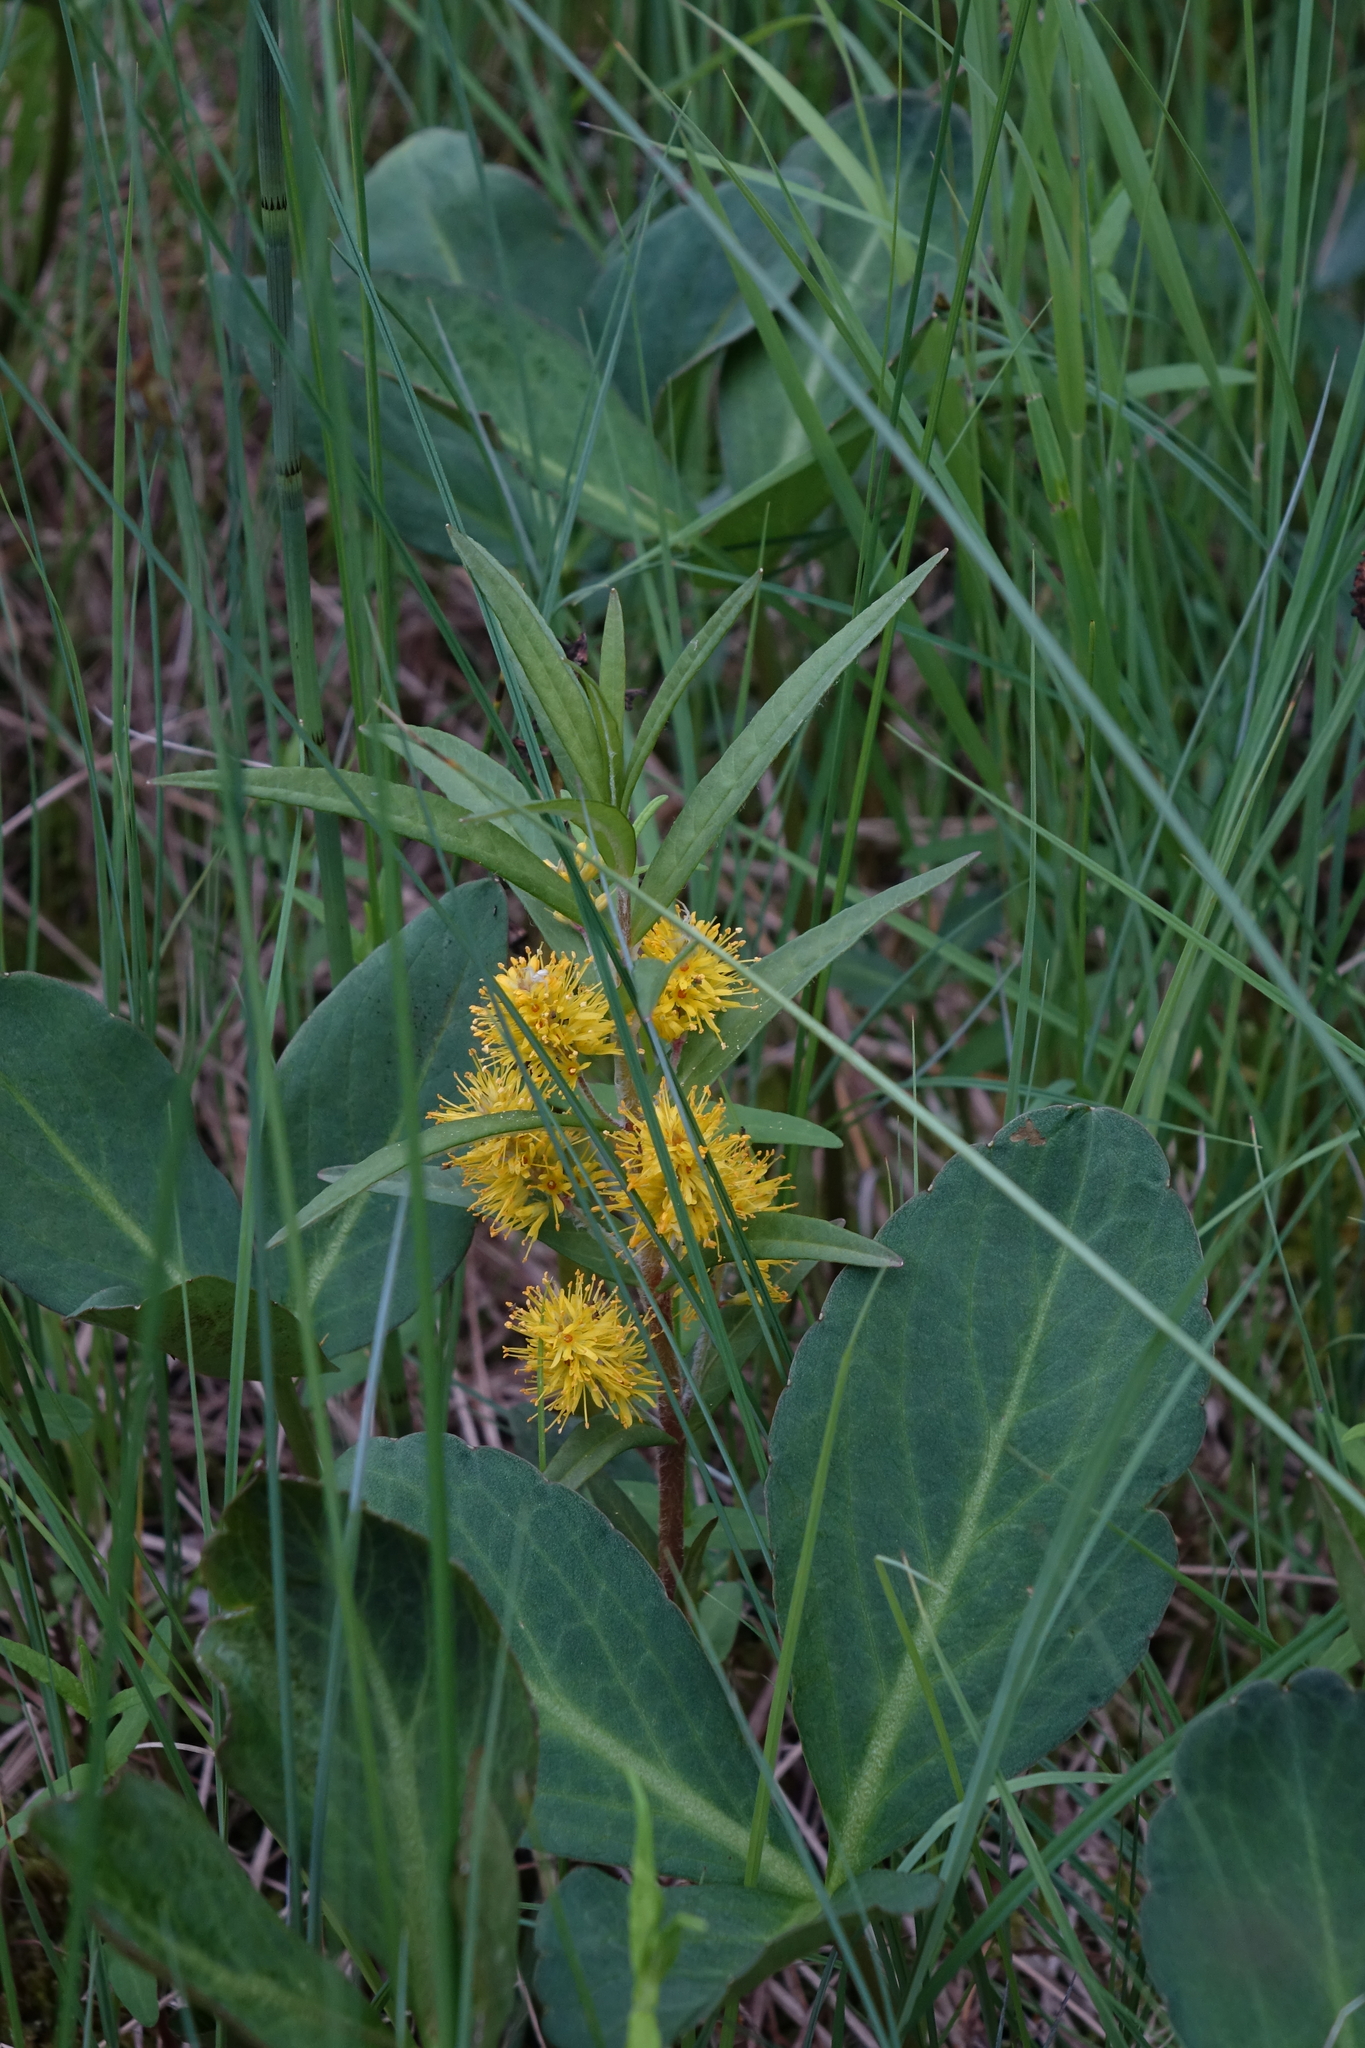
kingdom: Plantae
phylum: Tracheophyta
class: Magnoliopsida
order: Ericales
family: Primulaceae
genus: Lysimachia
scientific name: Lysimachia thyrsiflora
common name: Tufted loosestrife
